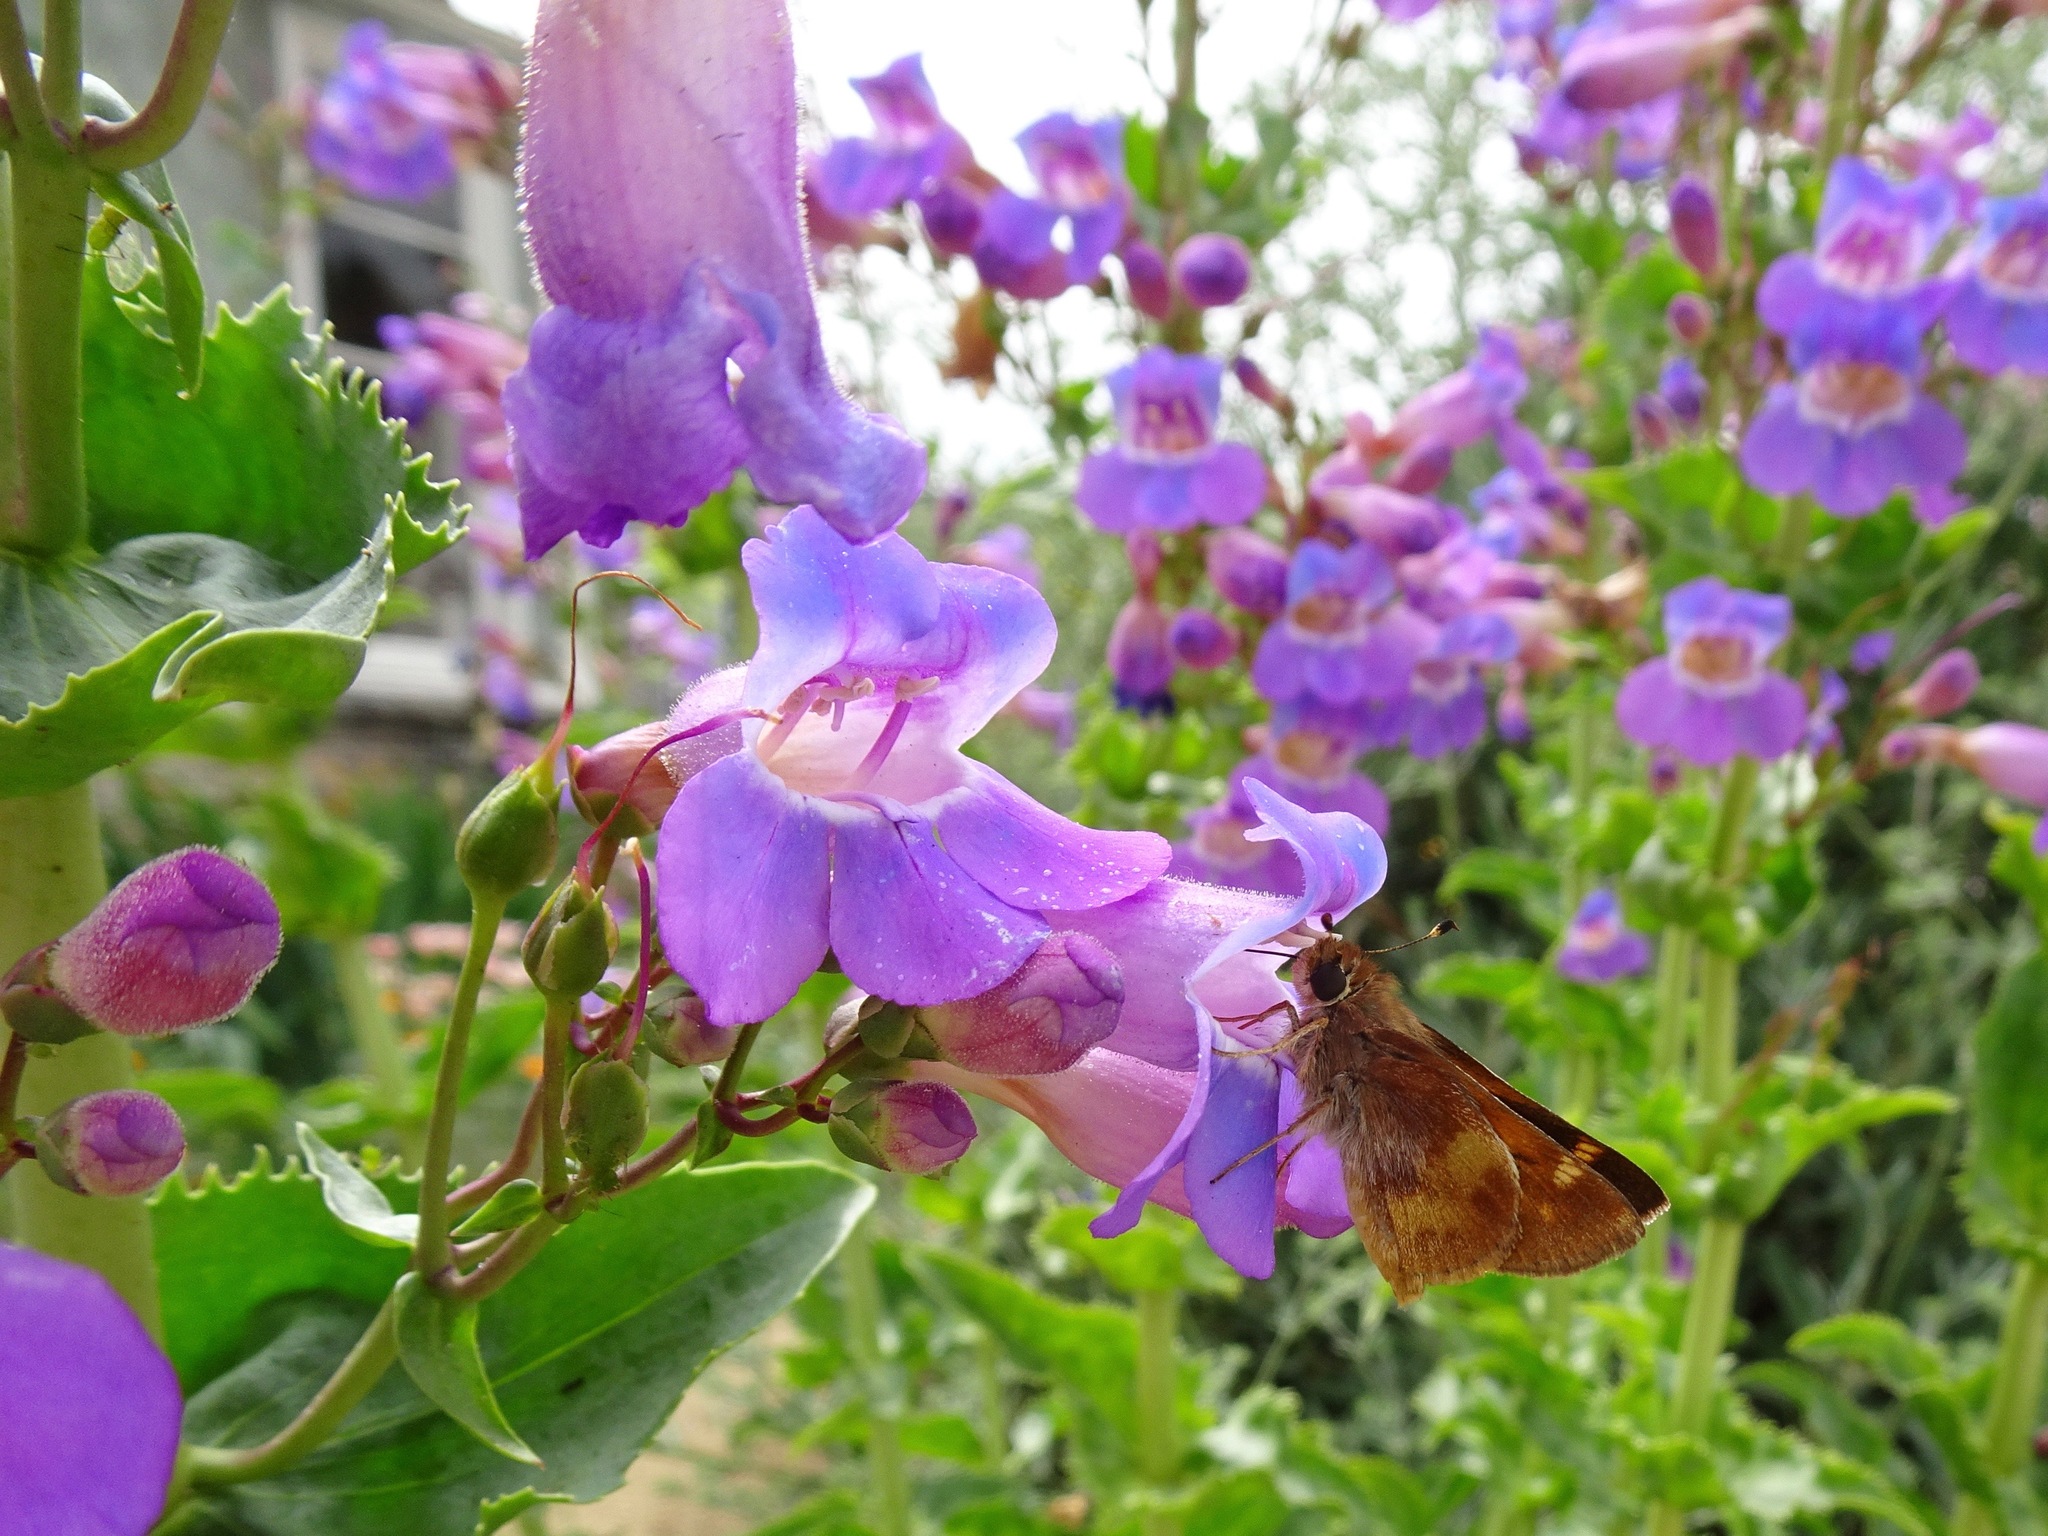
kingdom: Animalia
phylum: Arthropoda
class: Insecta
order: Lepidoptera
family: Hesperiidae
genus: Lon
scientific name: Lon melane
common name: Umber skipper
